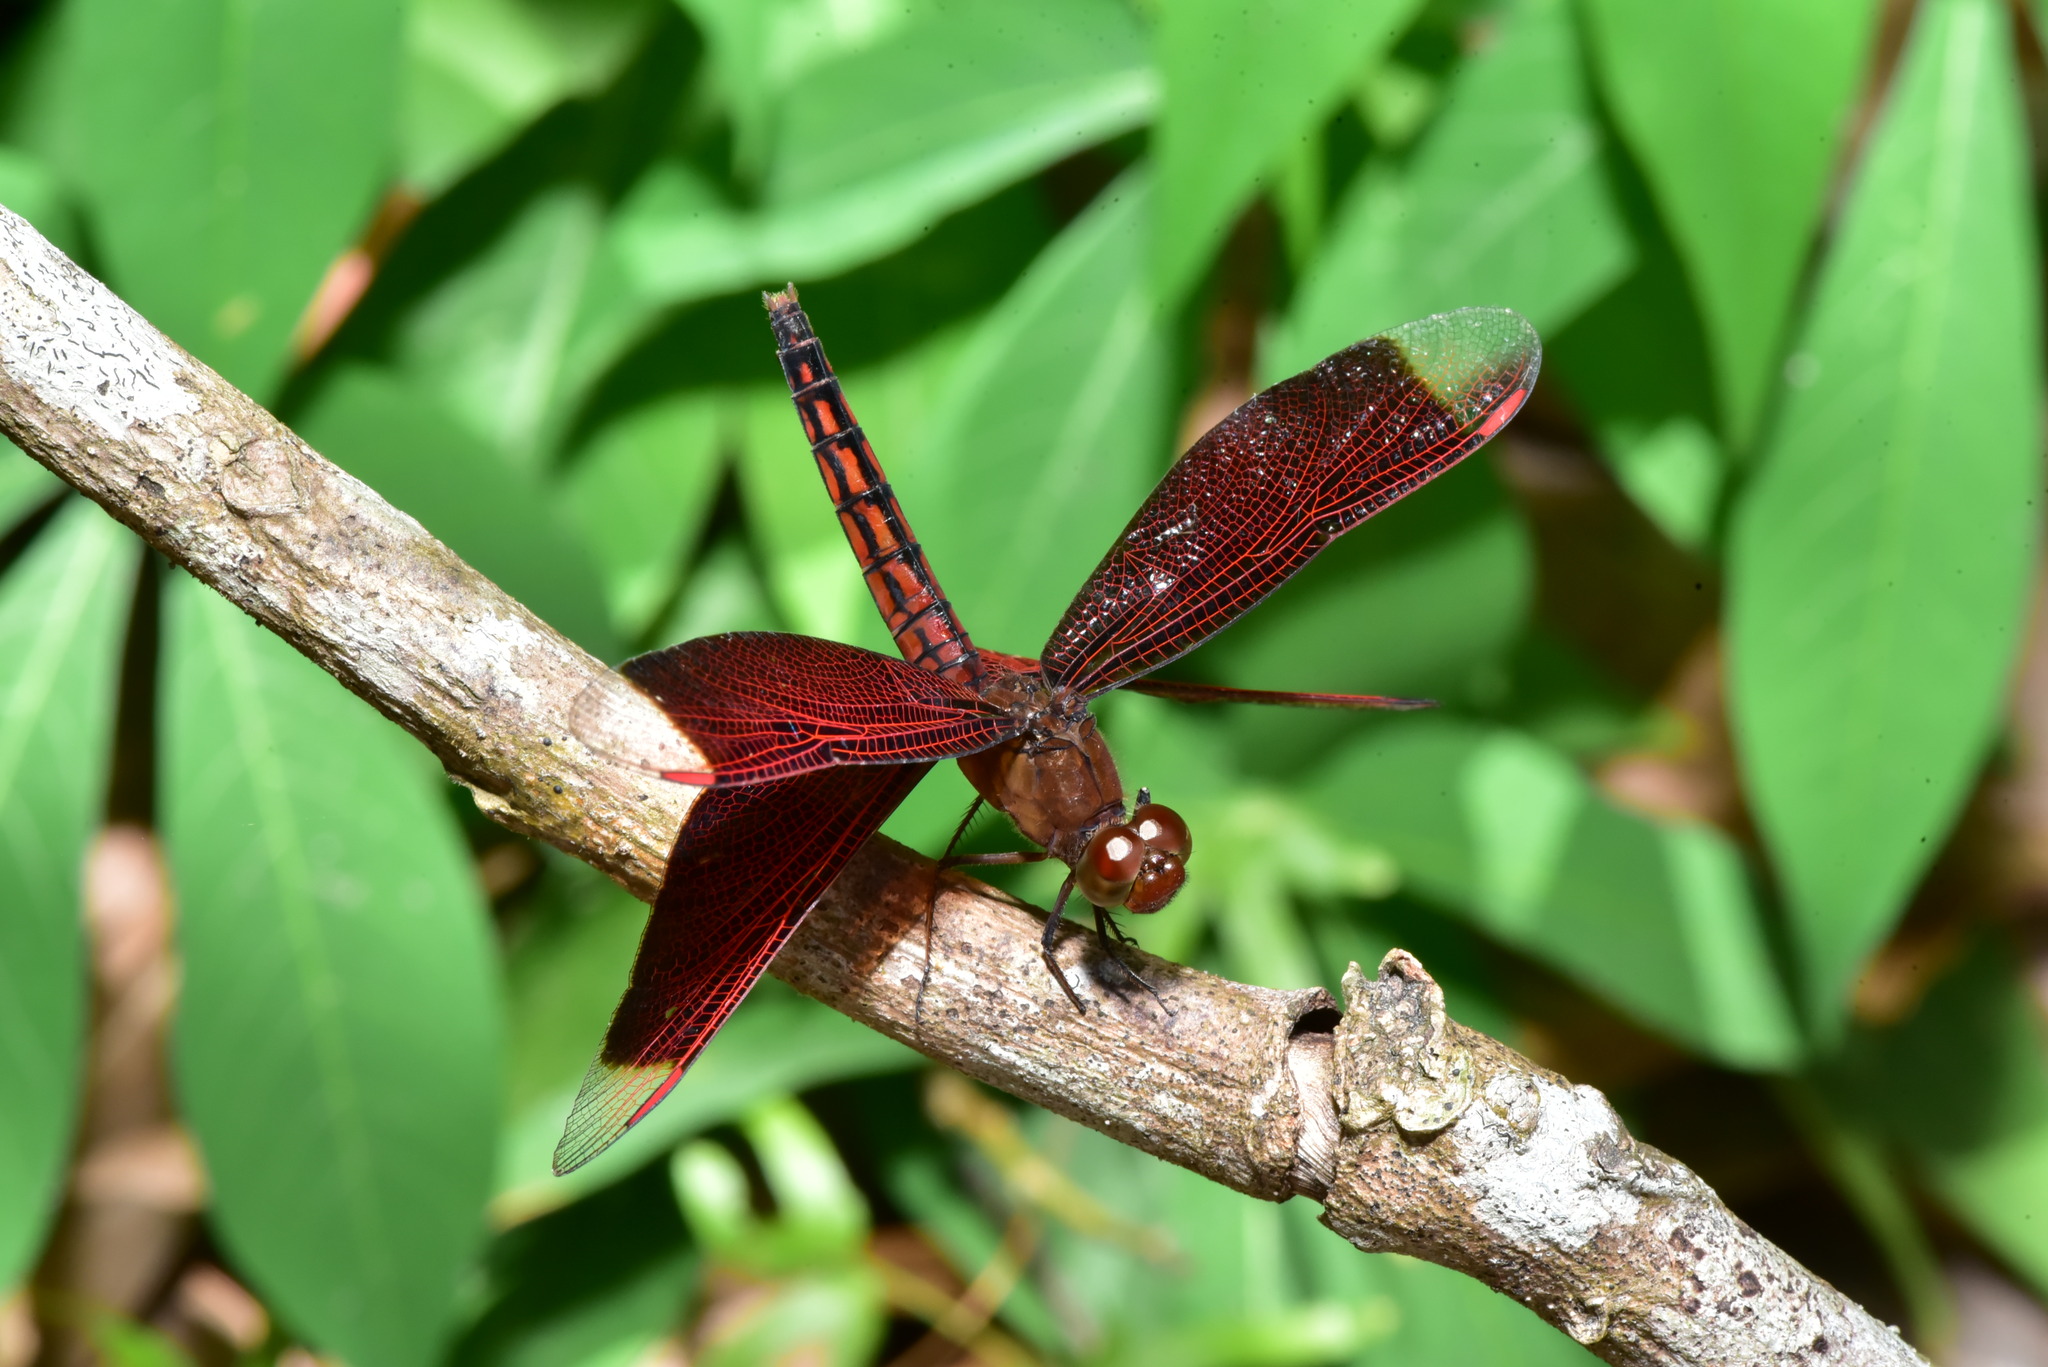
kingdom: Animalia
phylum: Arthropoda
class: Insecta
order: Odonata
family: Libellulidae
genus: Neurothemis
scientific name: Neurothemis taiwanensis
